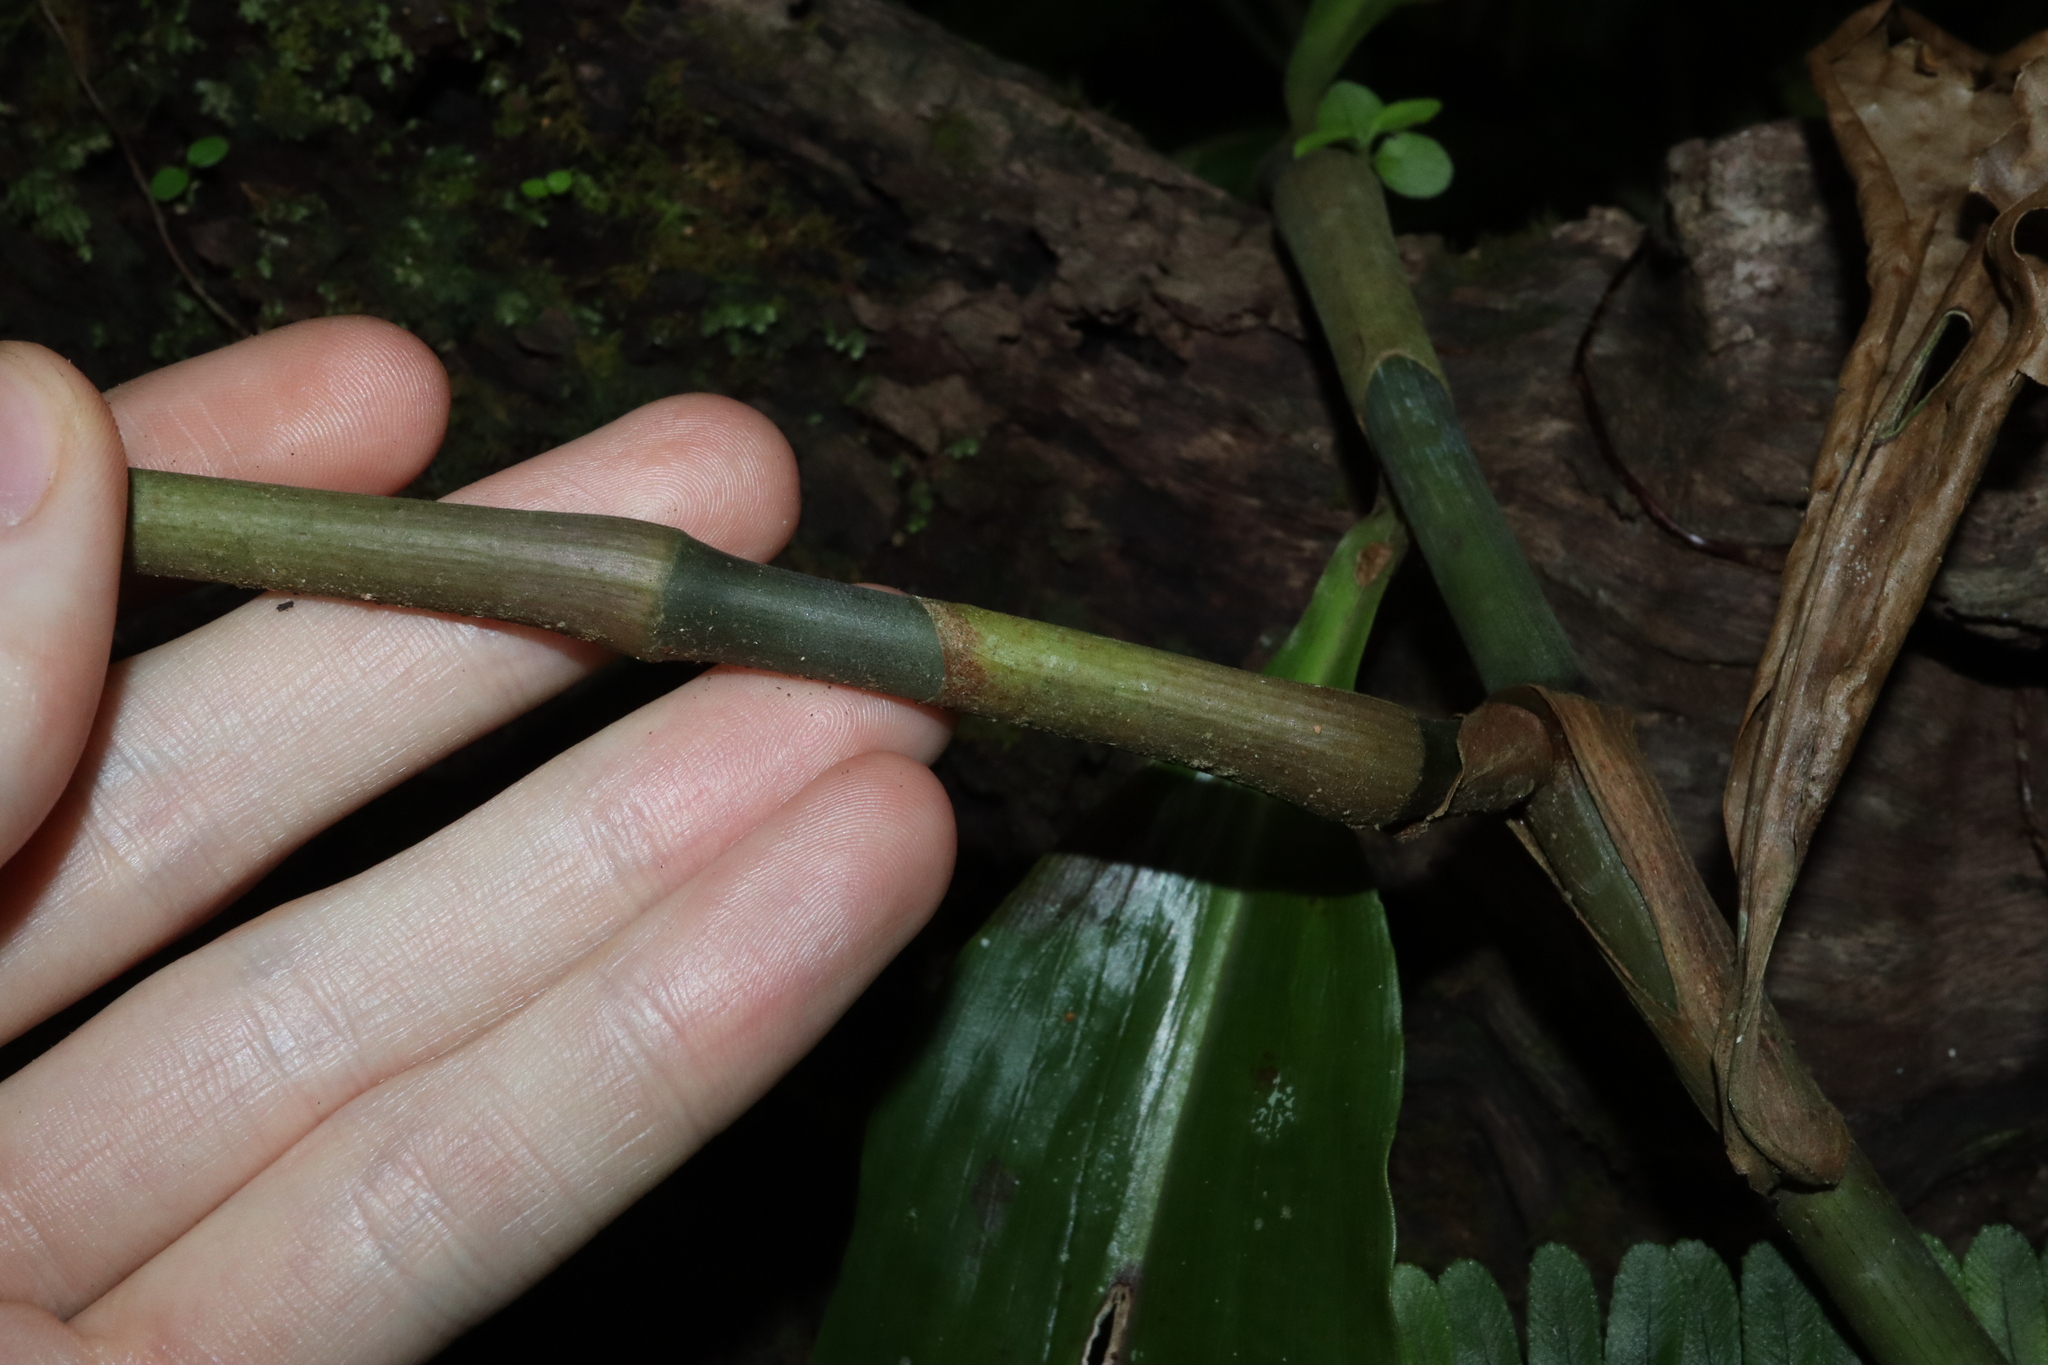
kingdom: Plantae
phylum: Tracheophyta
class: Liliopsida
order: Commelinales
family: Commelinaceae
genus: Pollia
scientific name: Pollia macrophylla
